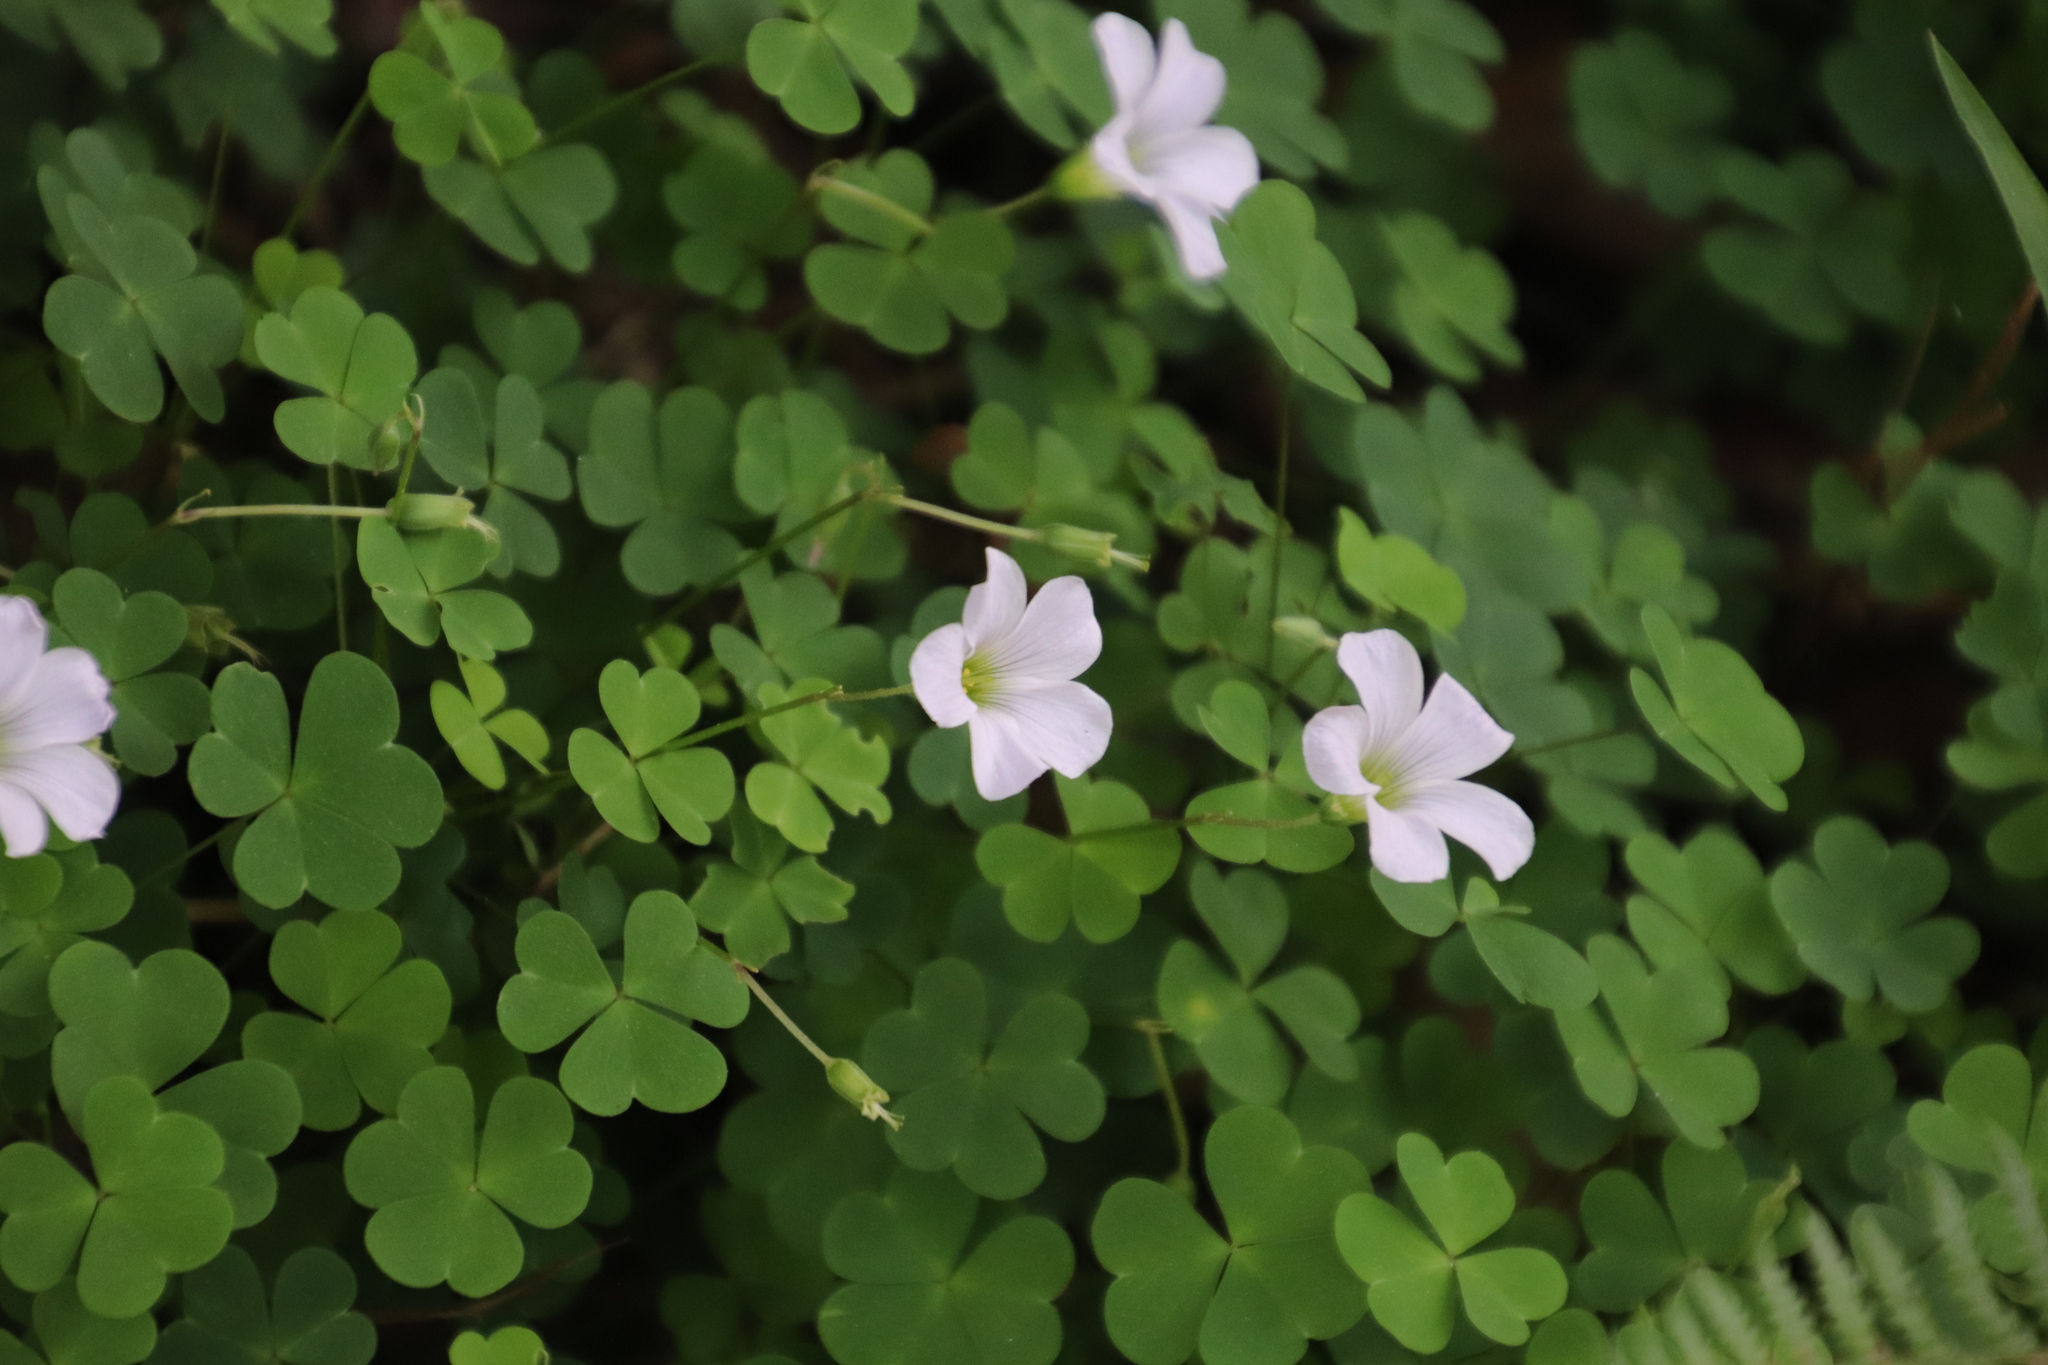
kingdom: Plantae
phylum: Tracheophyta
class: Magnoliopsida
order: Oxalidales
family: Oxalidaceae
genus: Oxalis
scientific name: Oxalis incarnata
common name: Pale pink-sorrel
